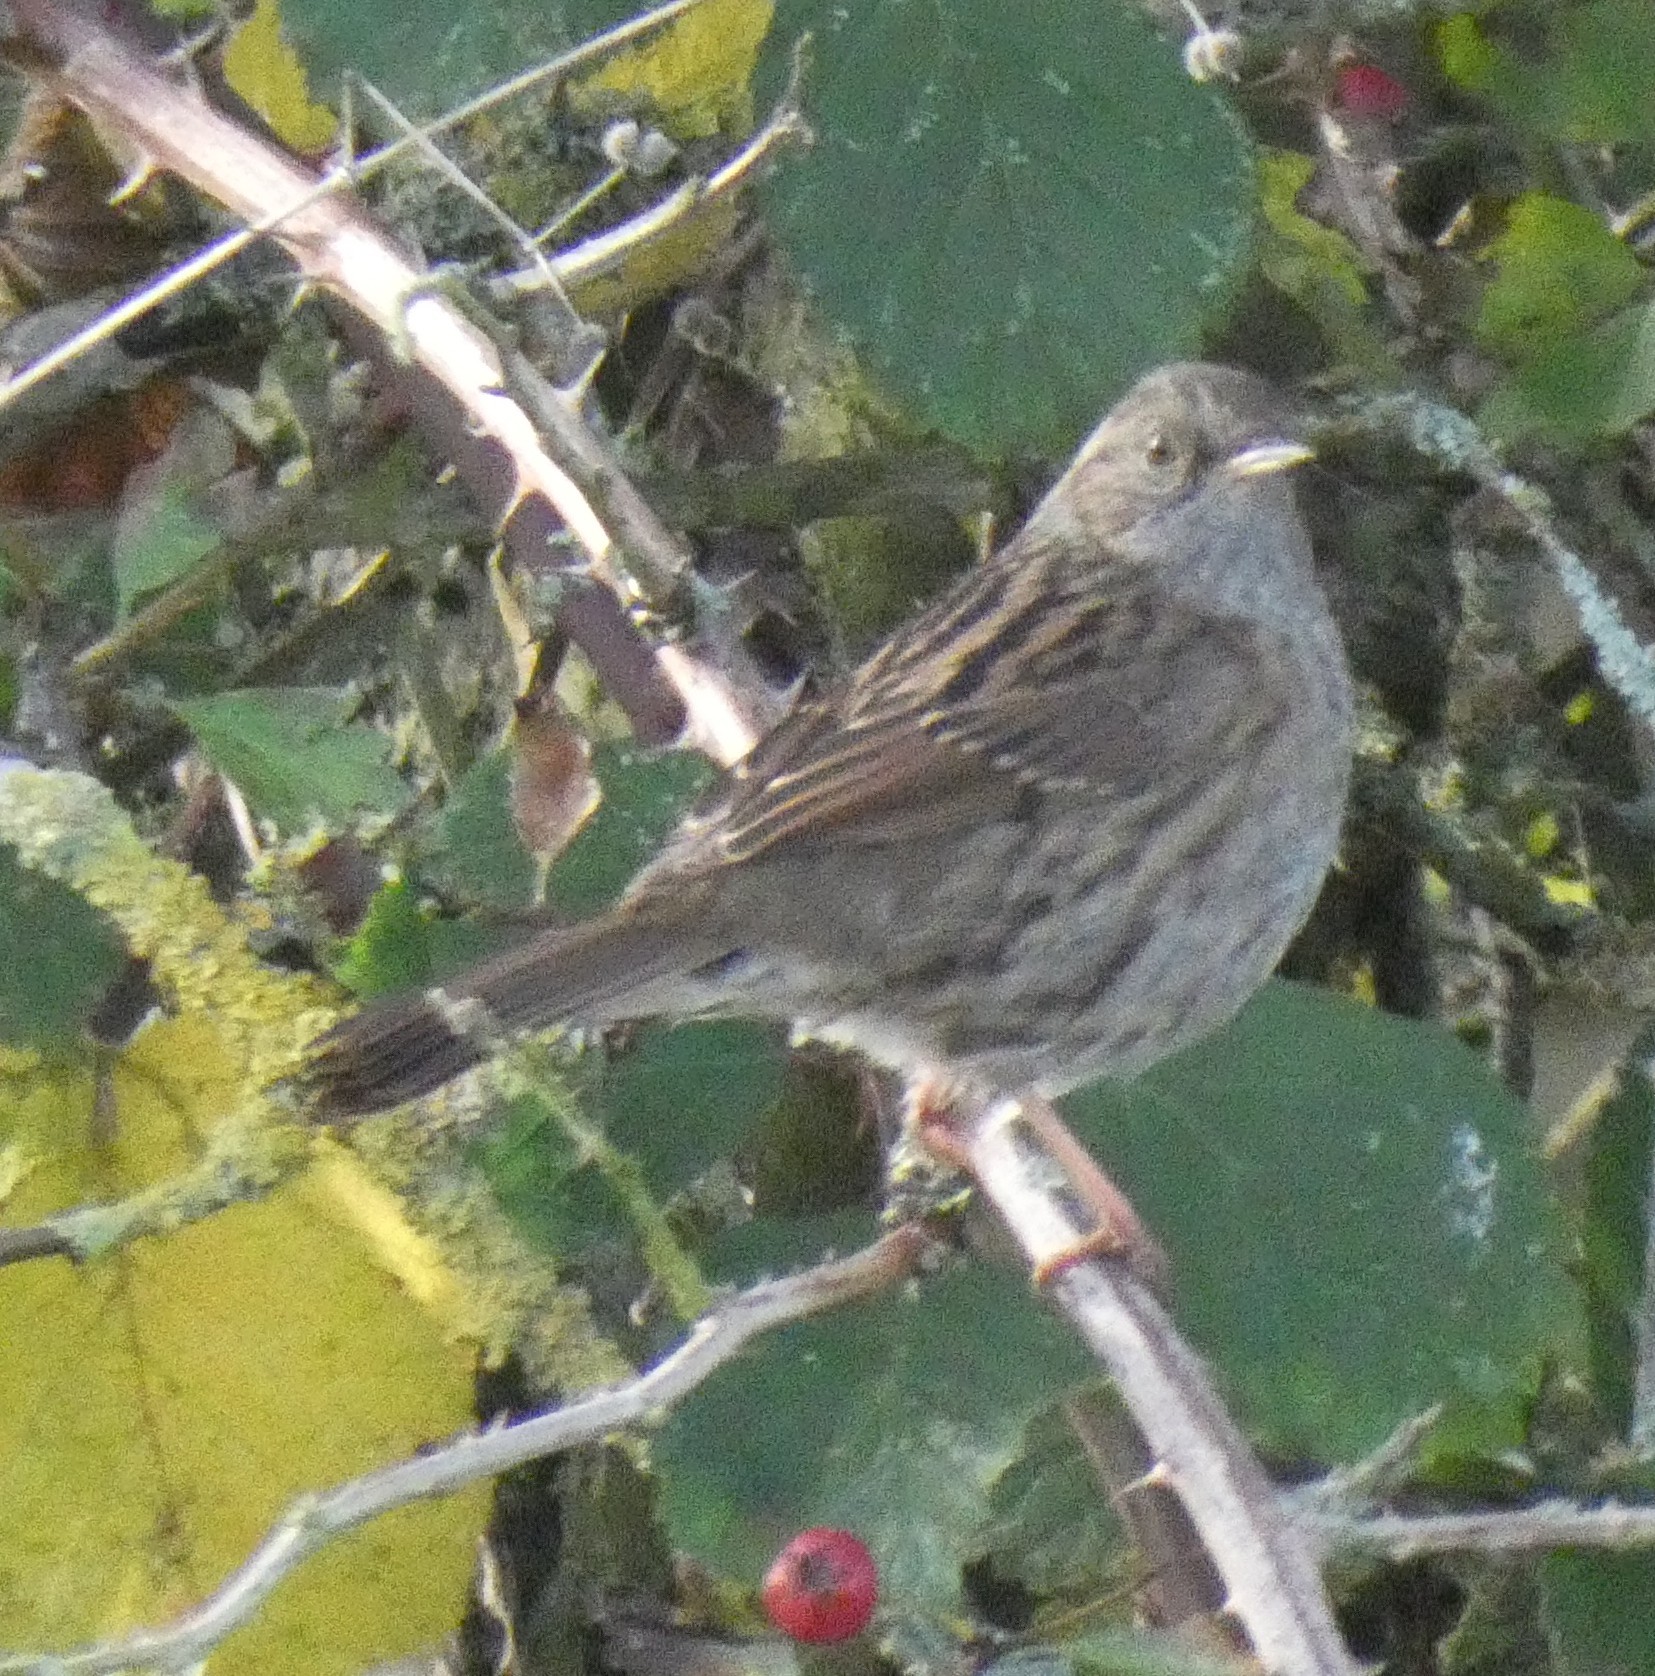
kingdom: Animalia
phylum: Chordata
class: Aves
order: Passeriformes
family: Prunellidae
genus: Prunella
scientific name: Prunella modularis
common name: Dunnock
